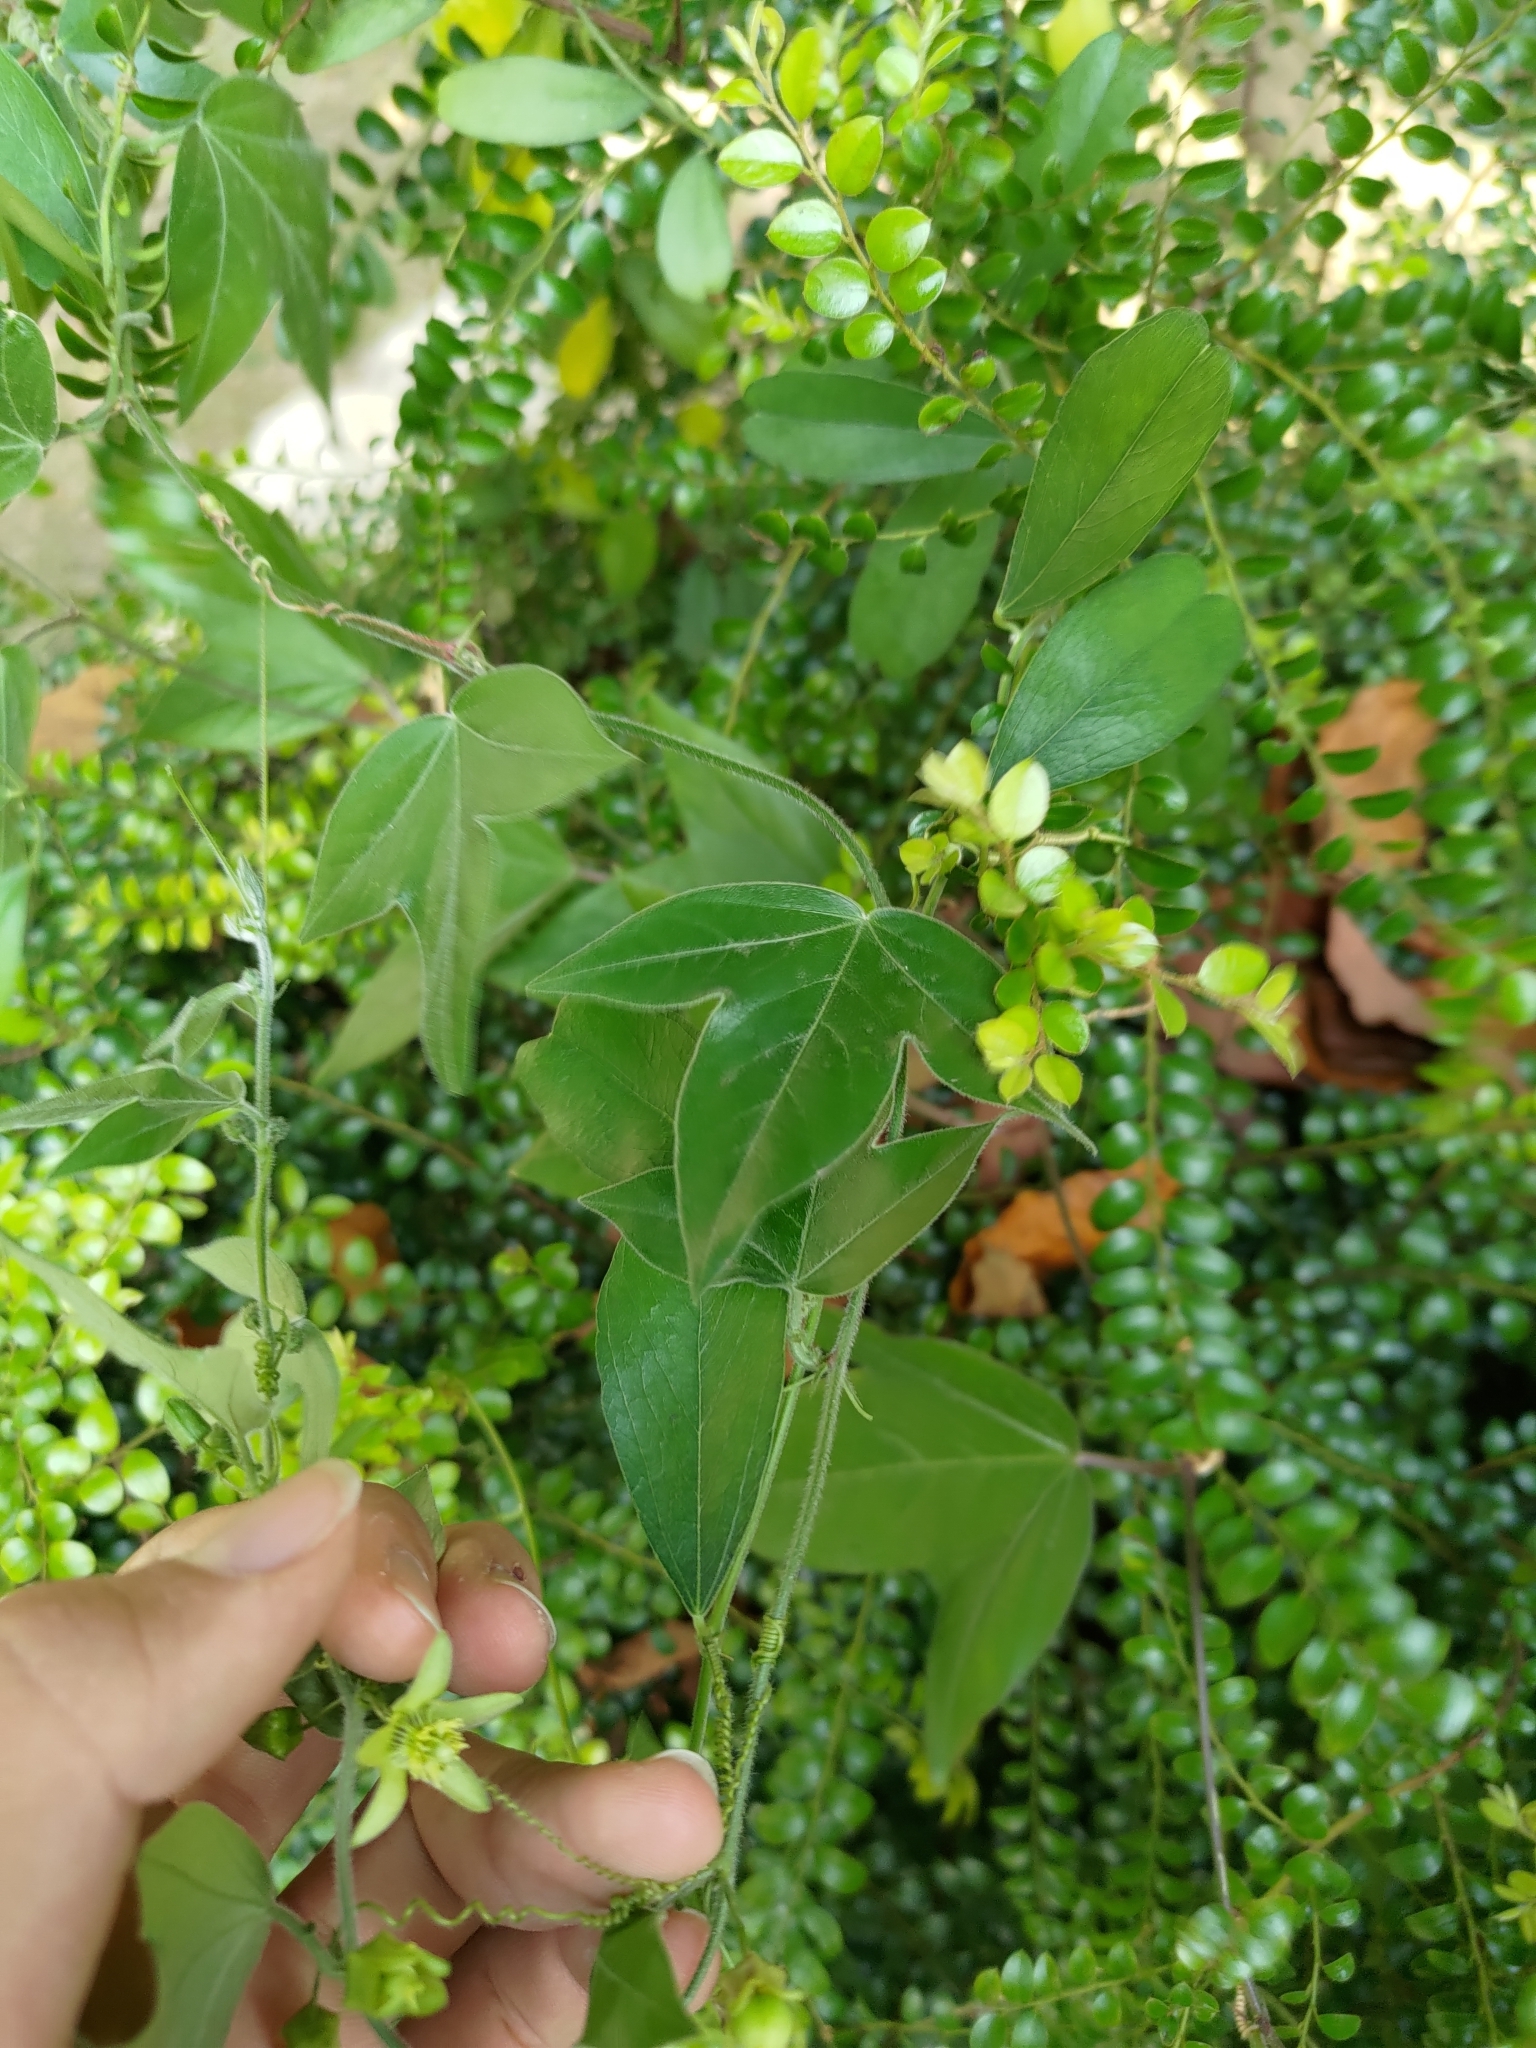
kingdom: Plantae
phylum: Tracheophyta
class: Magnoliopsida
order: Malpighiales
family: Passifloraceae
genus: Passiflora
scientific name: Passiflora suberosa
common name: Wild passionfruit
